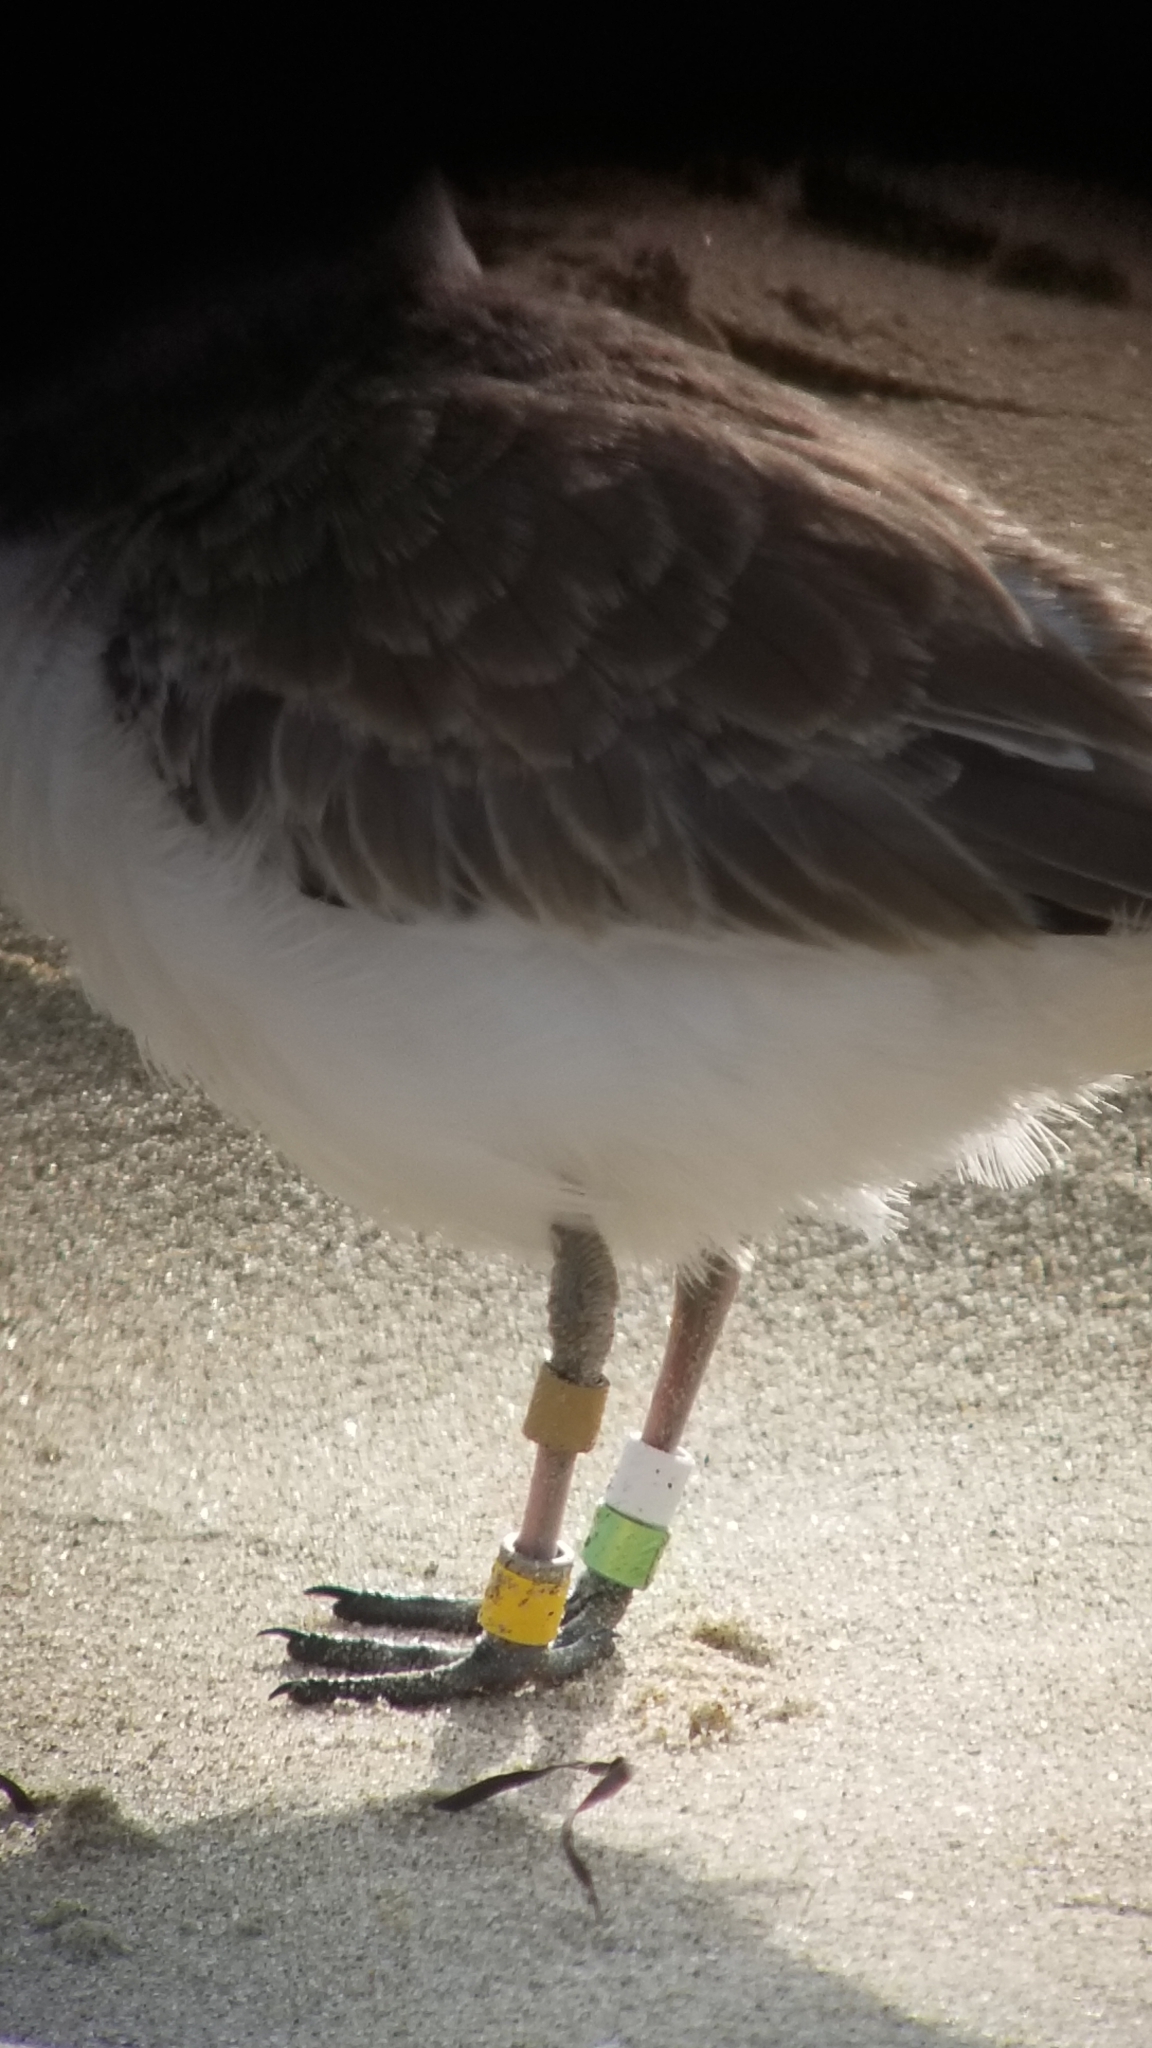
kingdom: Animalia
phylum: Chordata
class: Aves
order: Charadriiformes
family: Charadriidae
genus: Anarhynchus
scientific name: Anarhynchus
